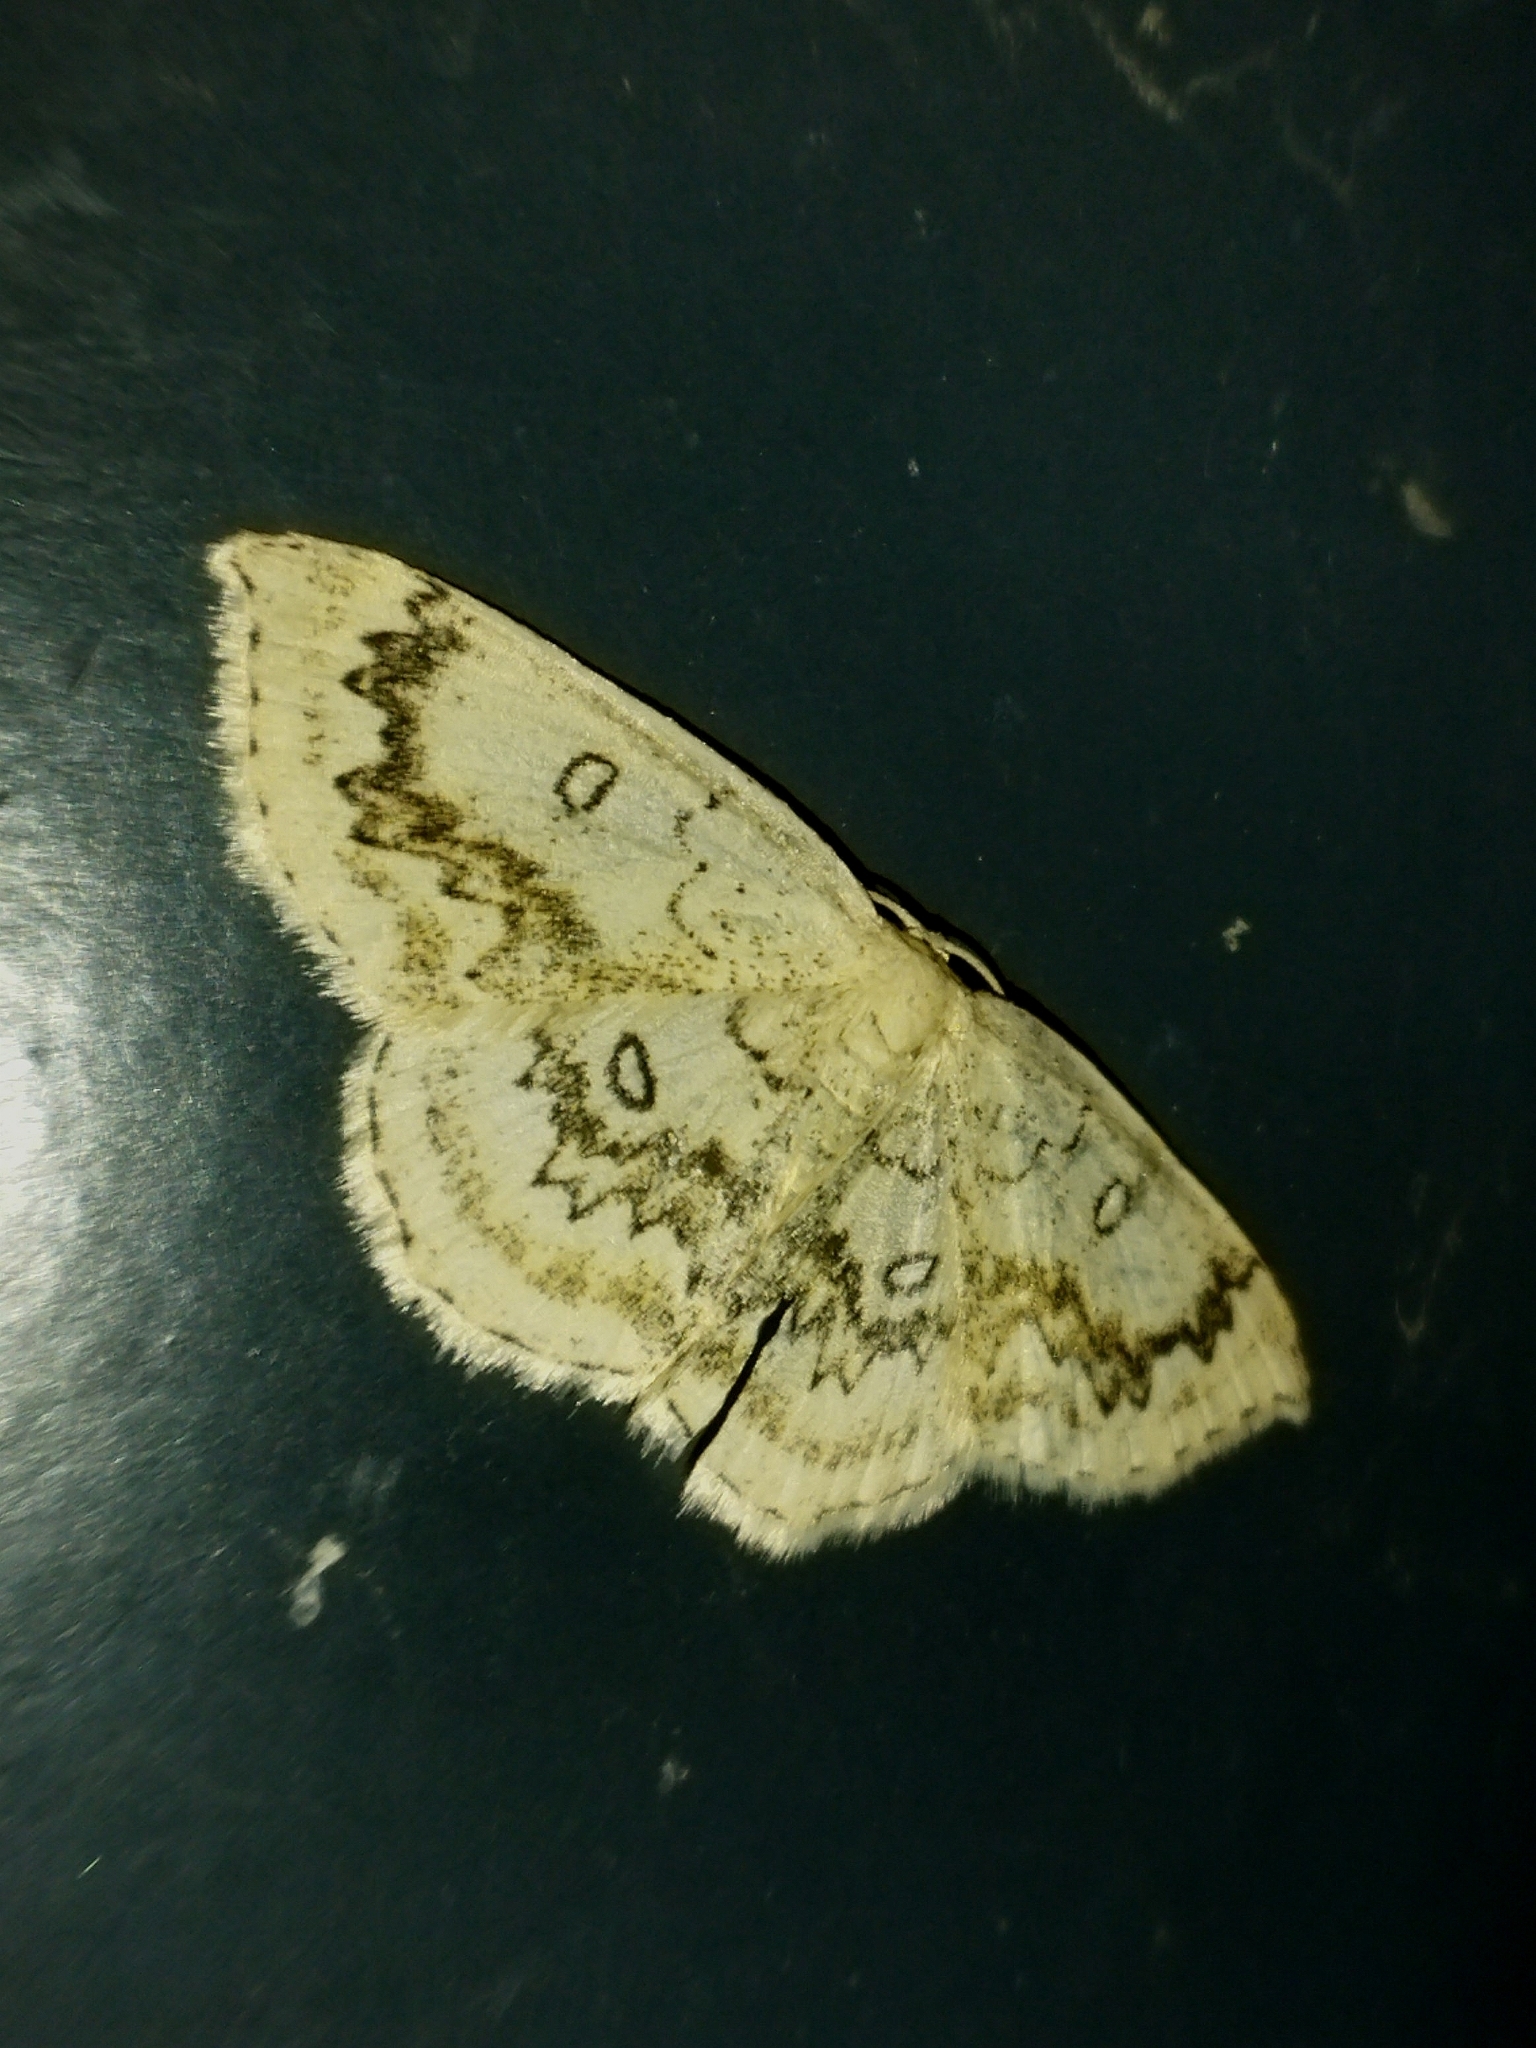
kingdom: Animalia
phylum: Arthropoda
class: Insecta
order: Lepidoptera
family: Geometridae
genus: Cyclophora
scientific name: Cyclophora annularia
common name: Mocha
